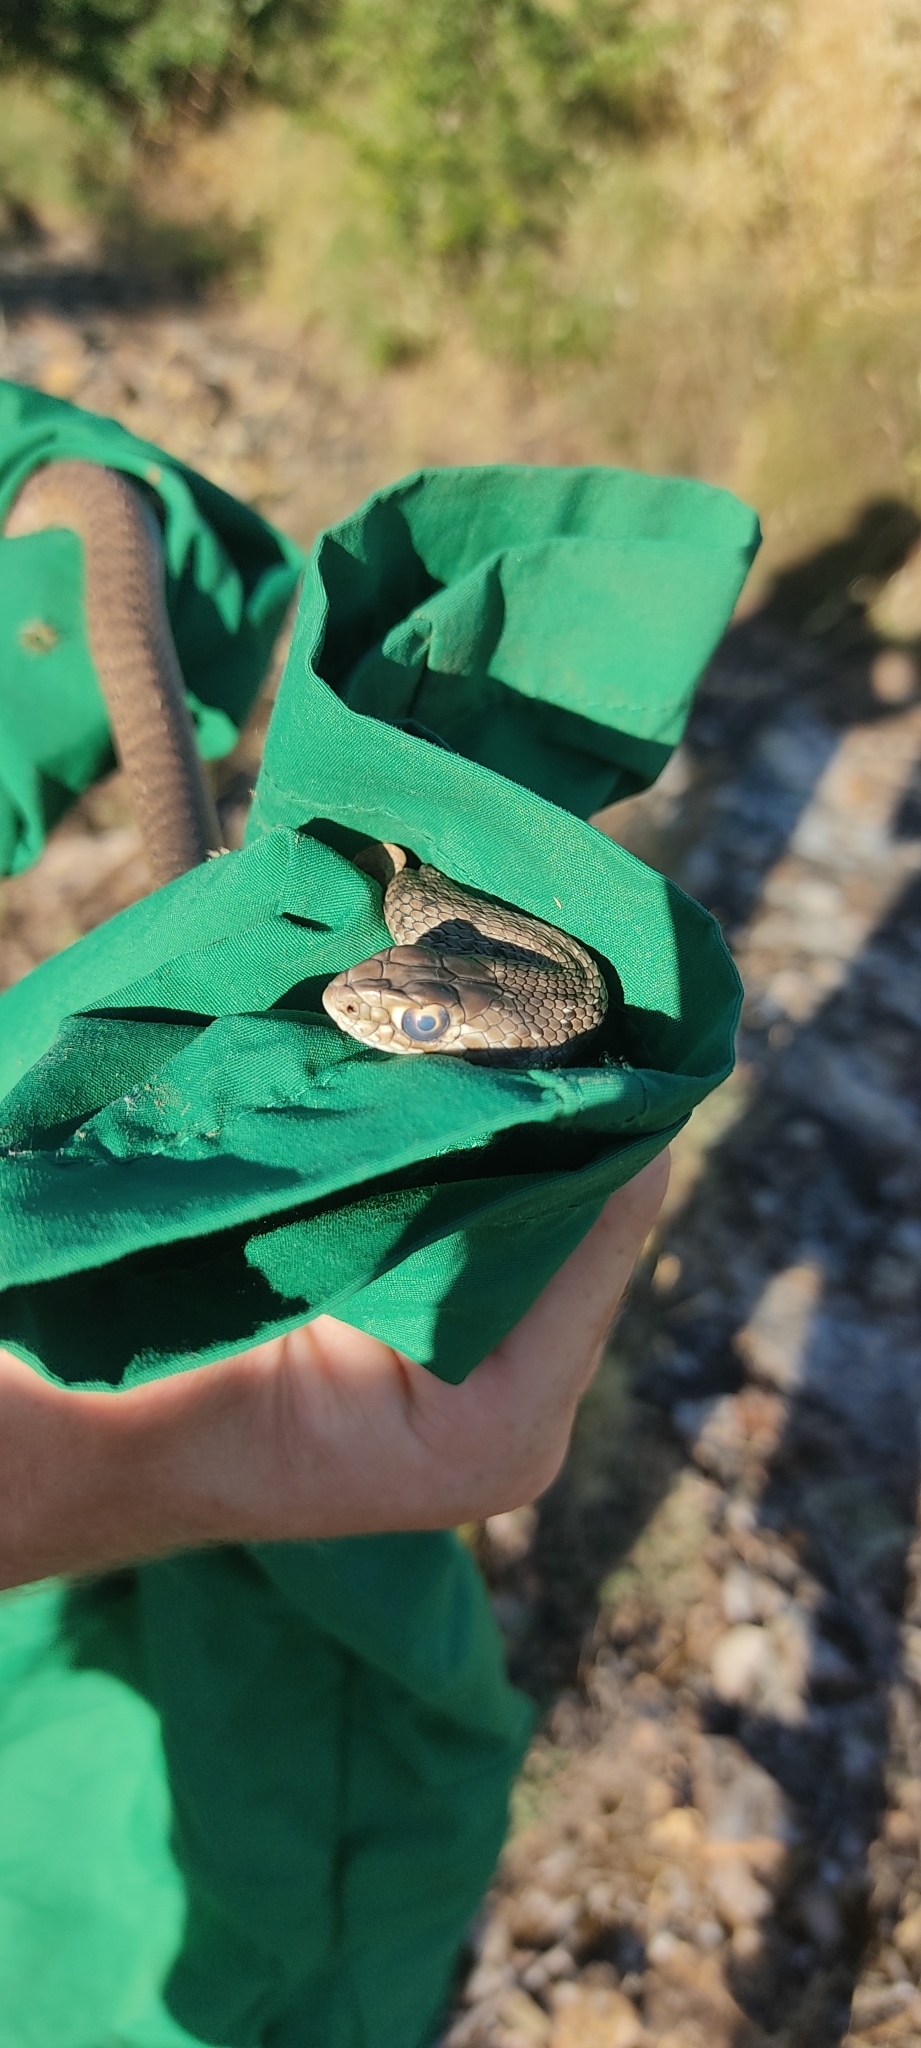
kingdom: Animalia
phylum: Chordata
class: Squamata
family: Psammophiidae
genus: Malpolon
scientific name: Malpolon monspessulanus
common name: Montpellier snake
